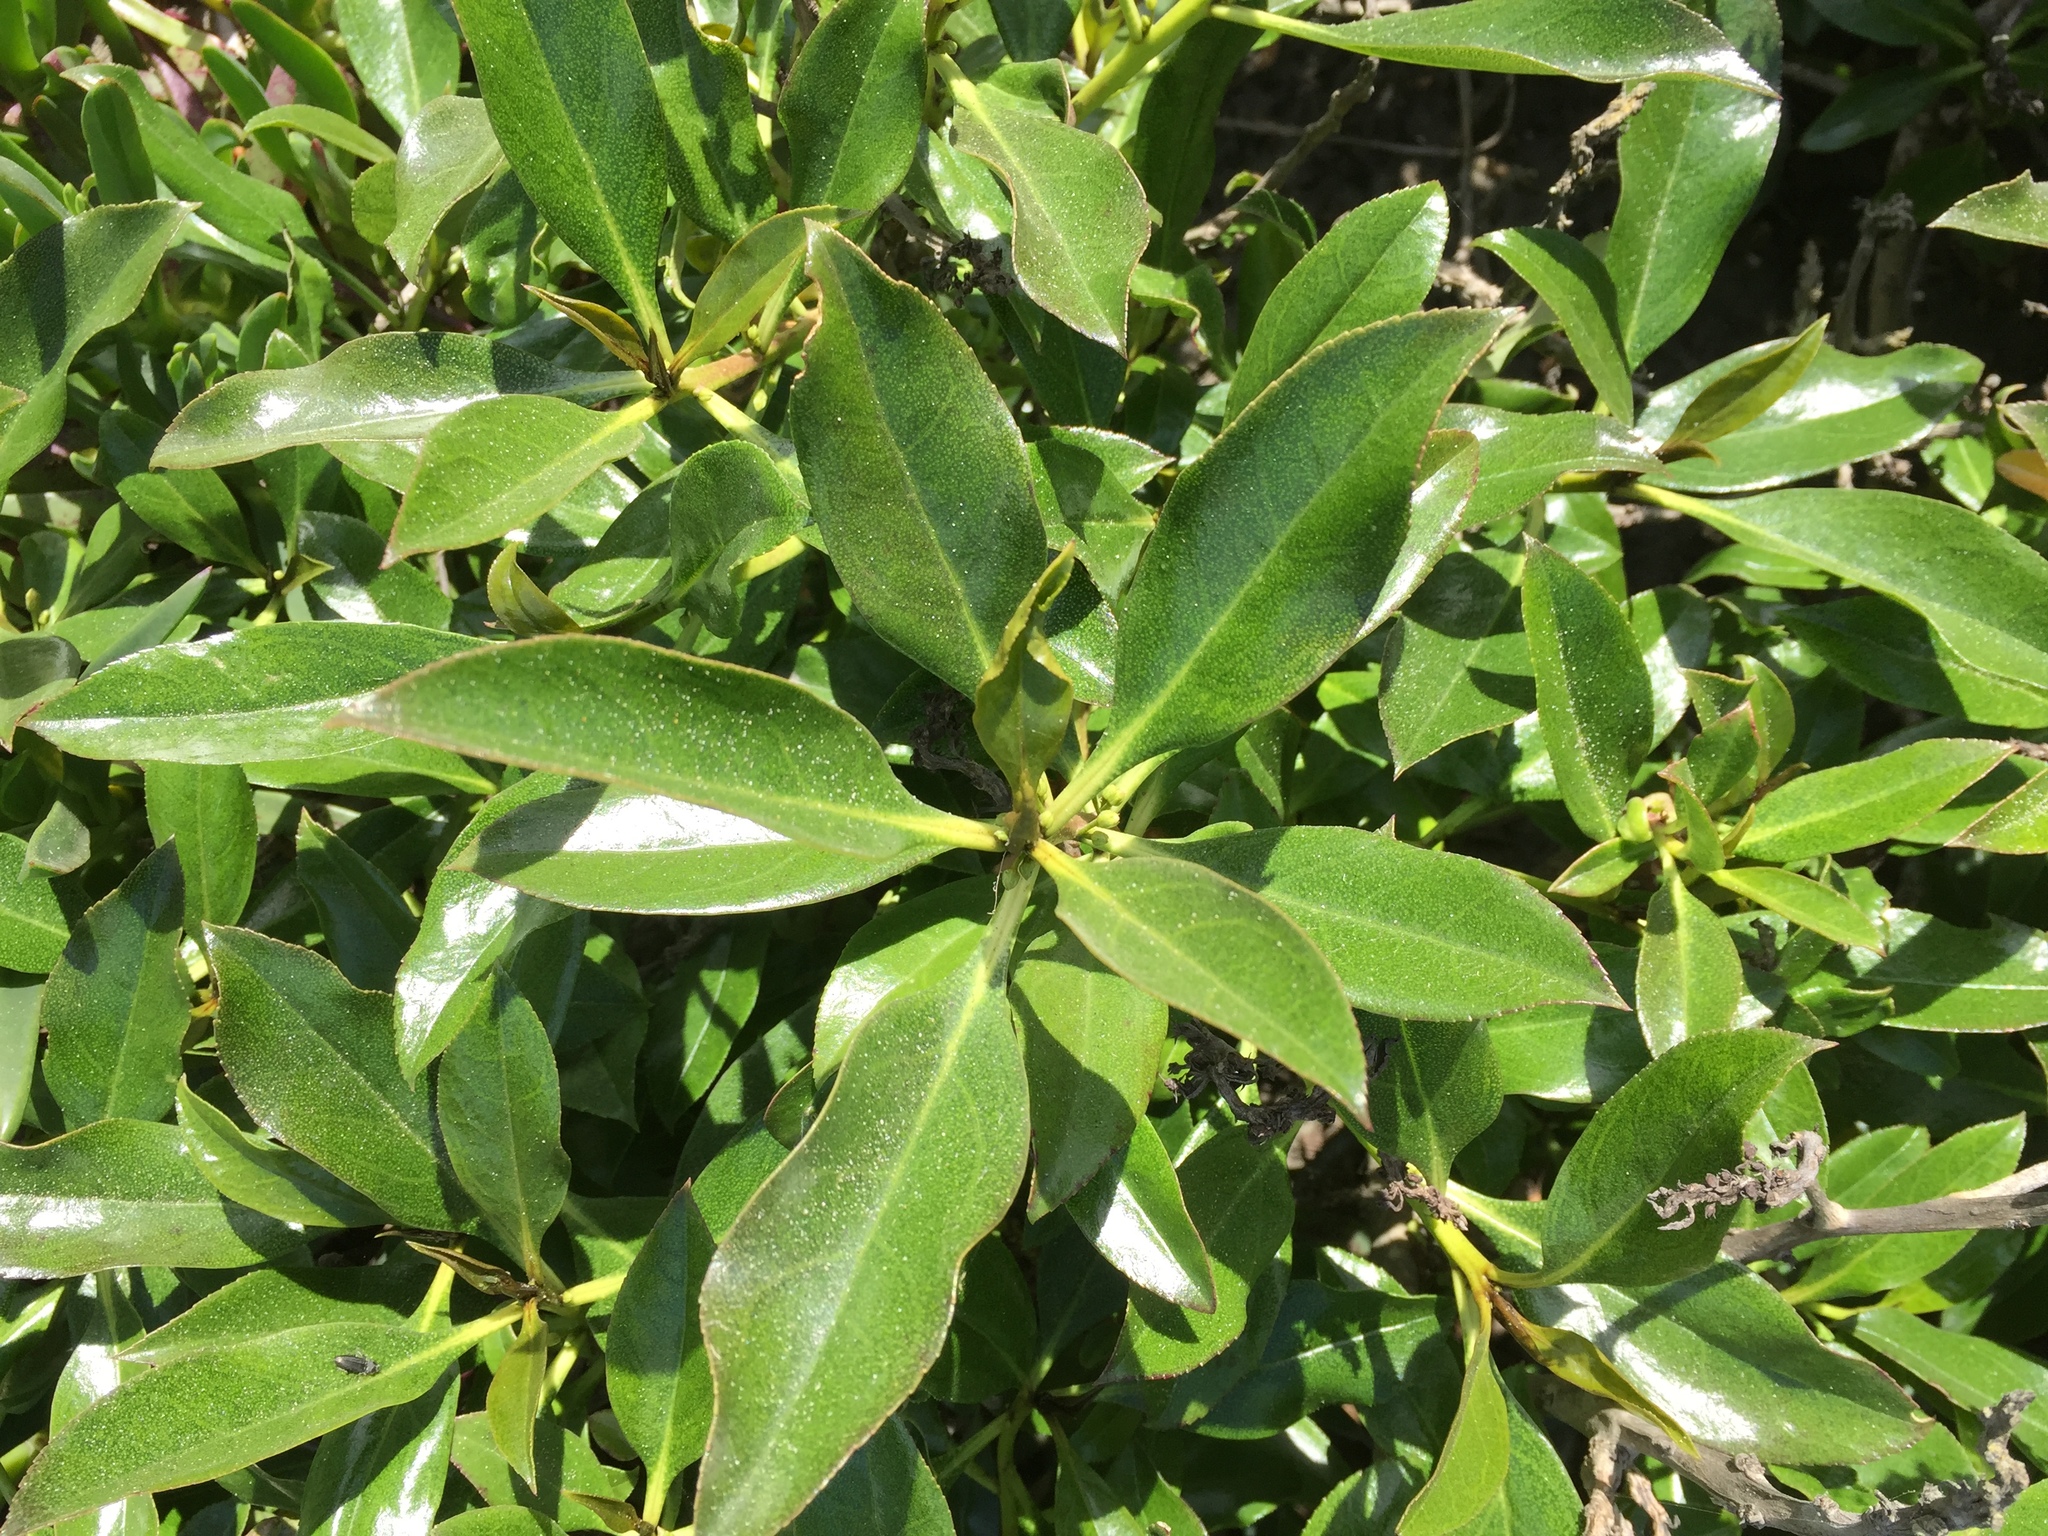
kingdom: Plantae
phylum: Tracheophyta
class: Magnoliopsida
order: Lamiales
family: Scrophulariaceae
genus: Myoporum
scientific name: Myoporum laetum
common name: Ngaio tree
